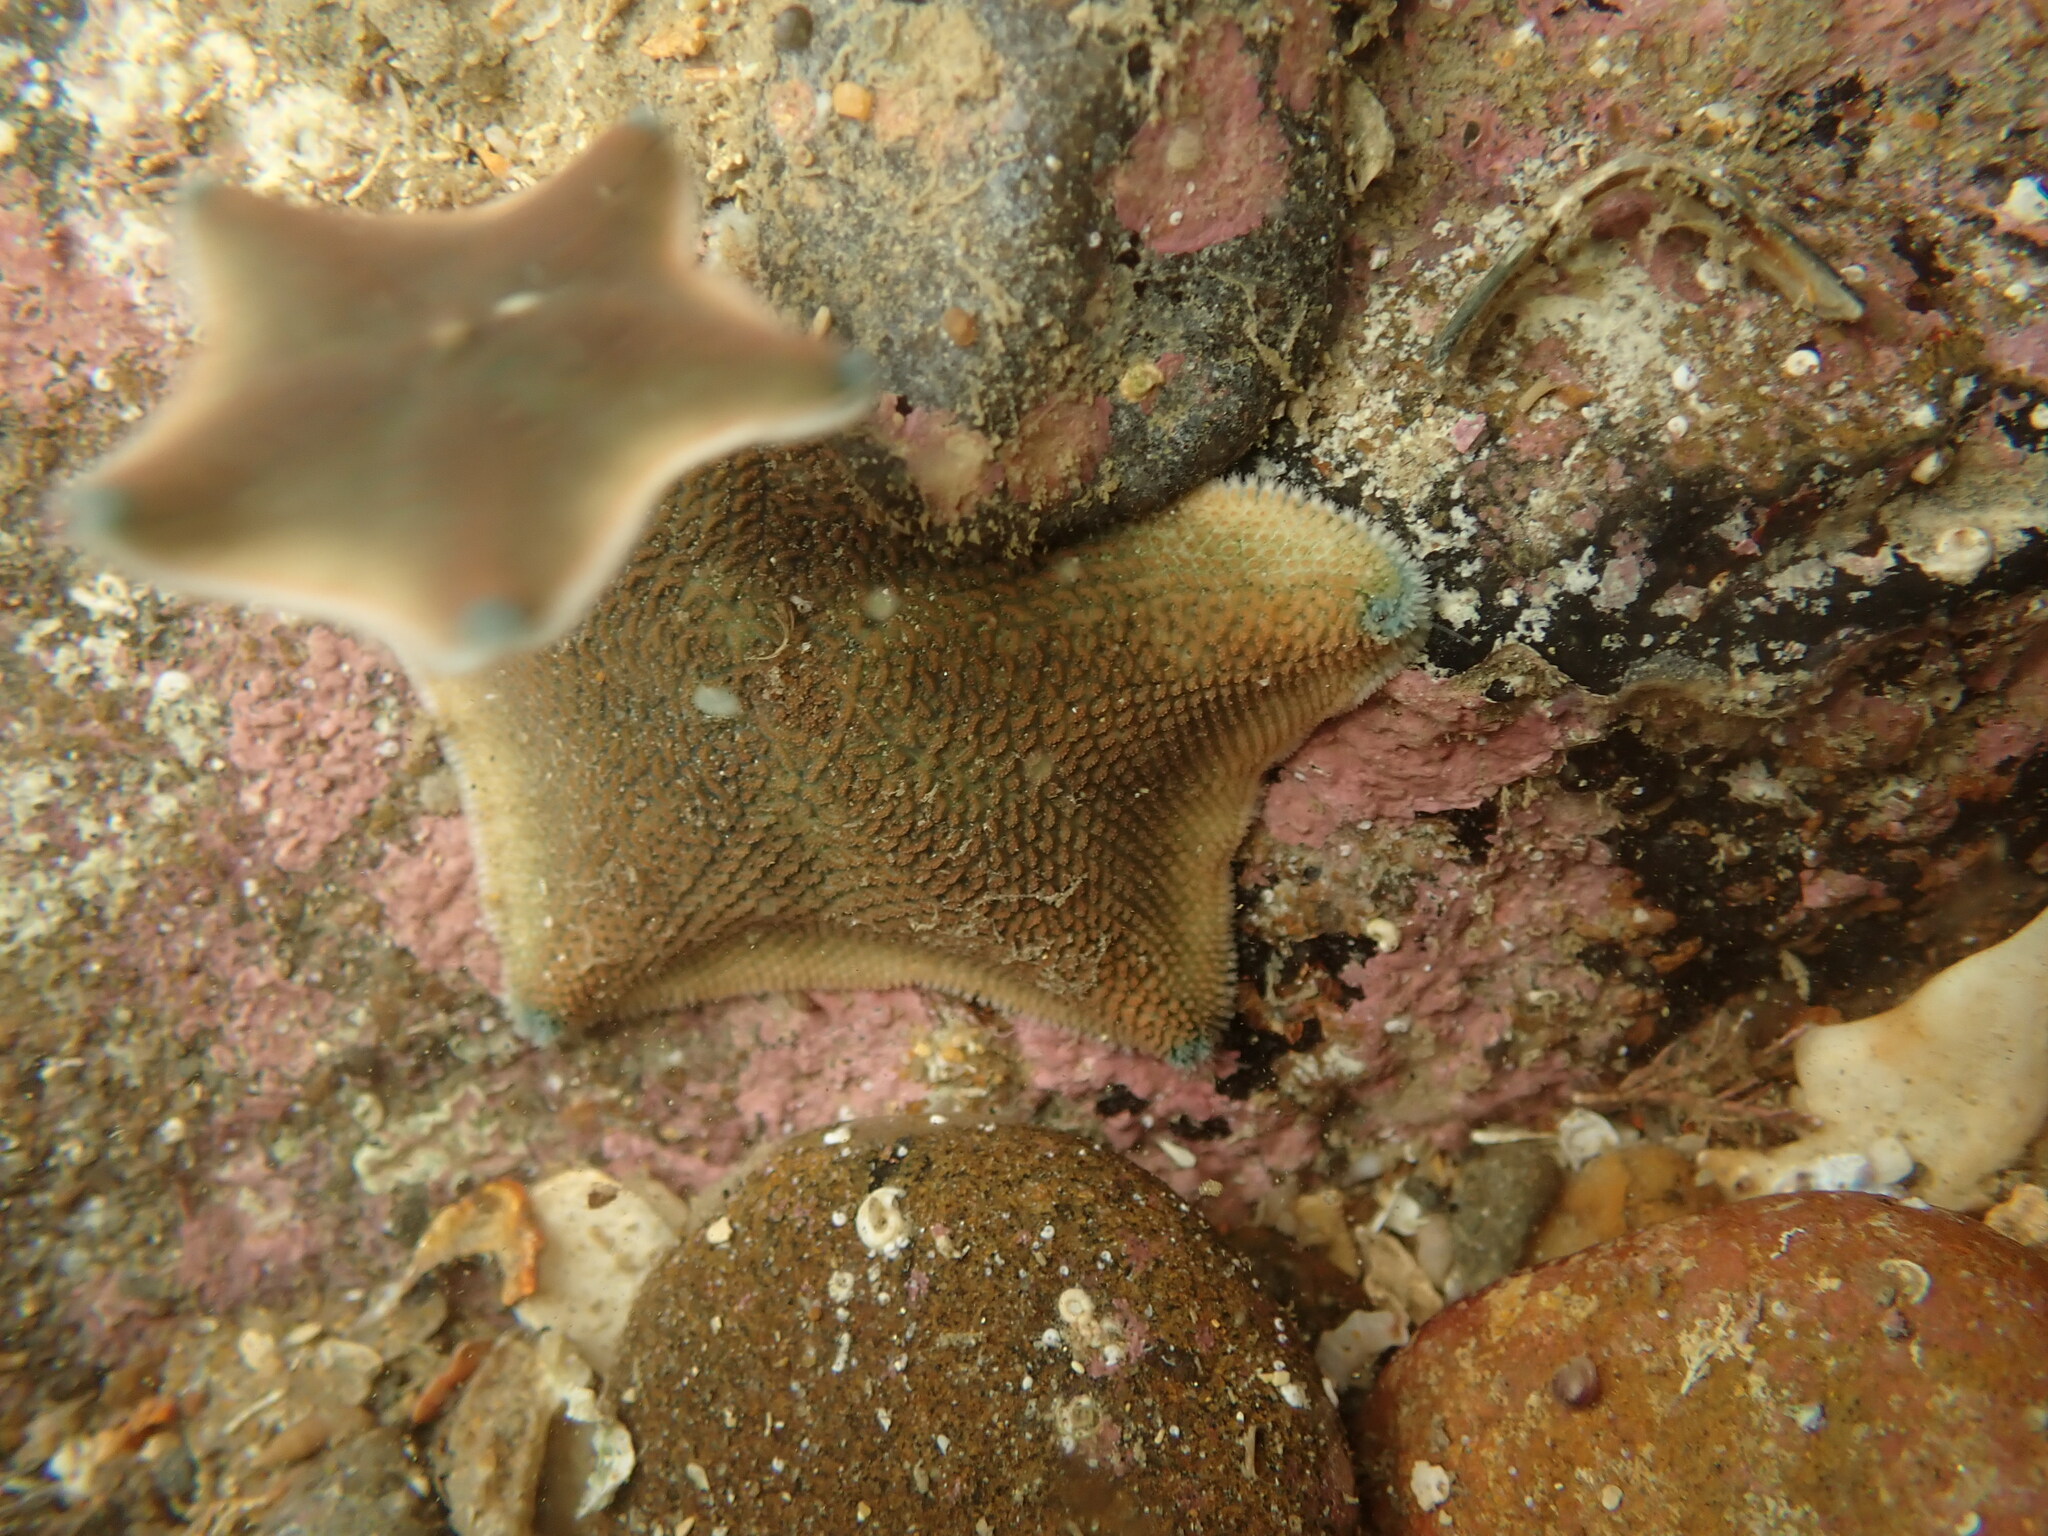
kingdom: Animalia
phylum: Echinodermata
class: Asteroidea
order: Valvatida
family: Asterinidae
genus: Patiriella
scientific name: Patiriella regularis
